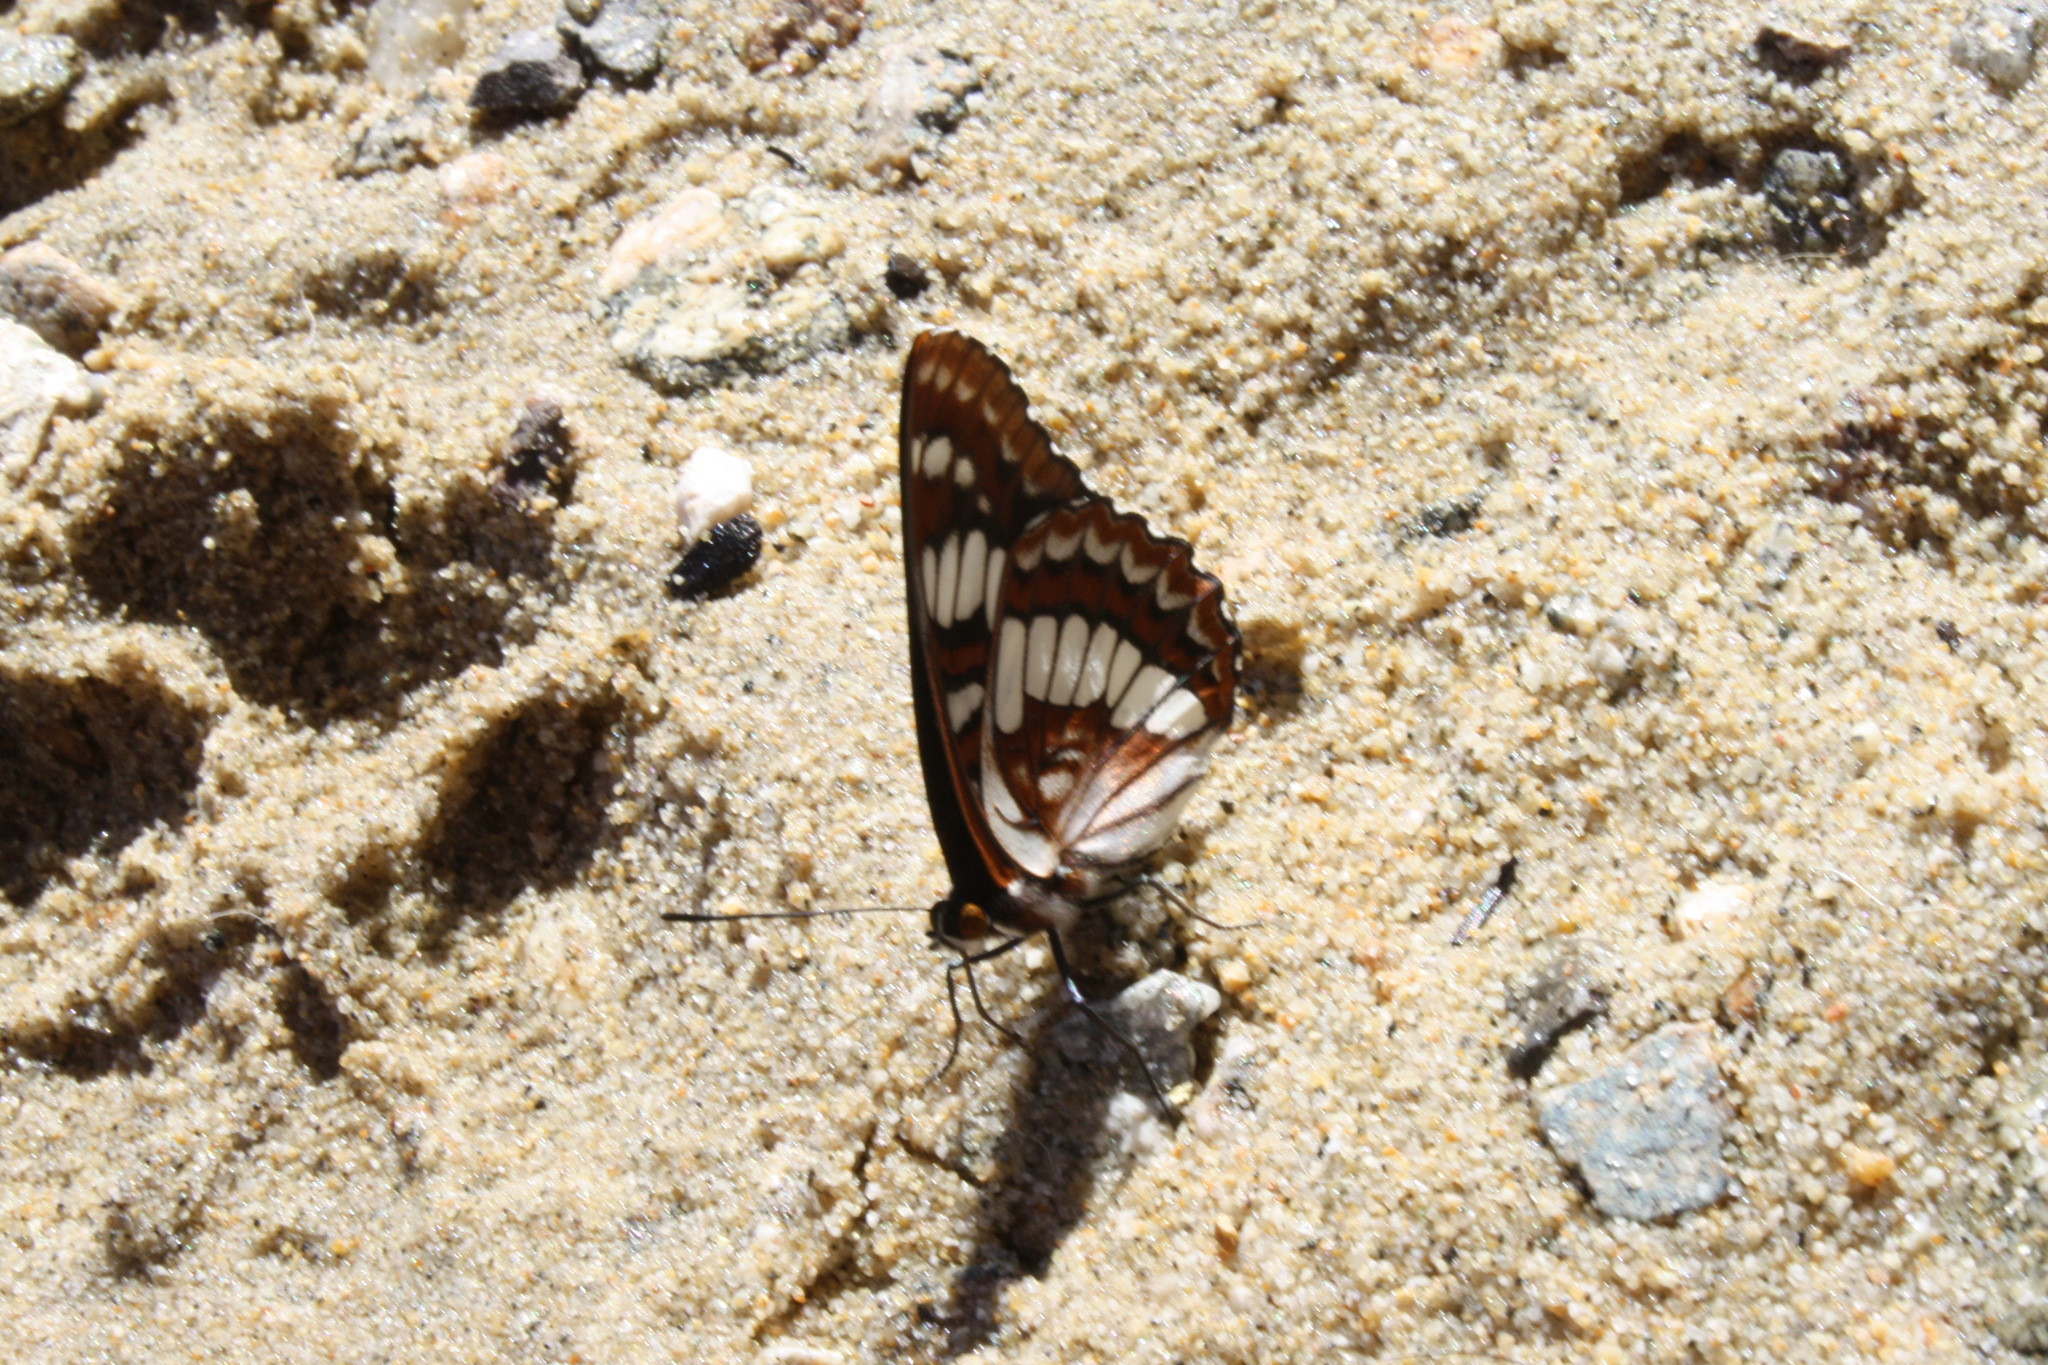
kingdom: Animalia
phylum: Arthropoda
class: Insecta
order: Lepidoptera
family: Nymphalidae
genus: Limenitis
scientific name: Limenitis lorquini
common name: Lorquin's admiral
